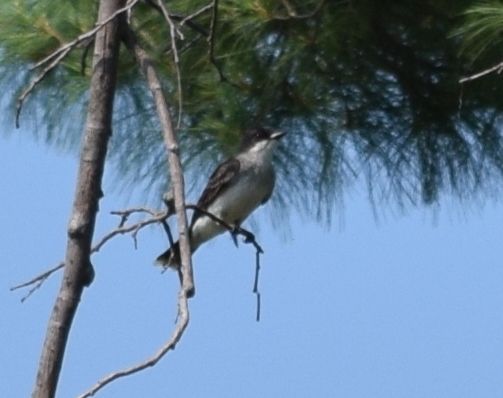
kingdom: Animalia
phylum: Chordata
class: Aves
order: Passeriformes
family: Tyrannidae
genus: Tyrannus
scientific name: Tyrannus tyrannus
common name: Eastern kingbird
